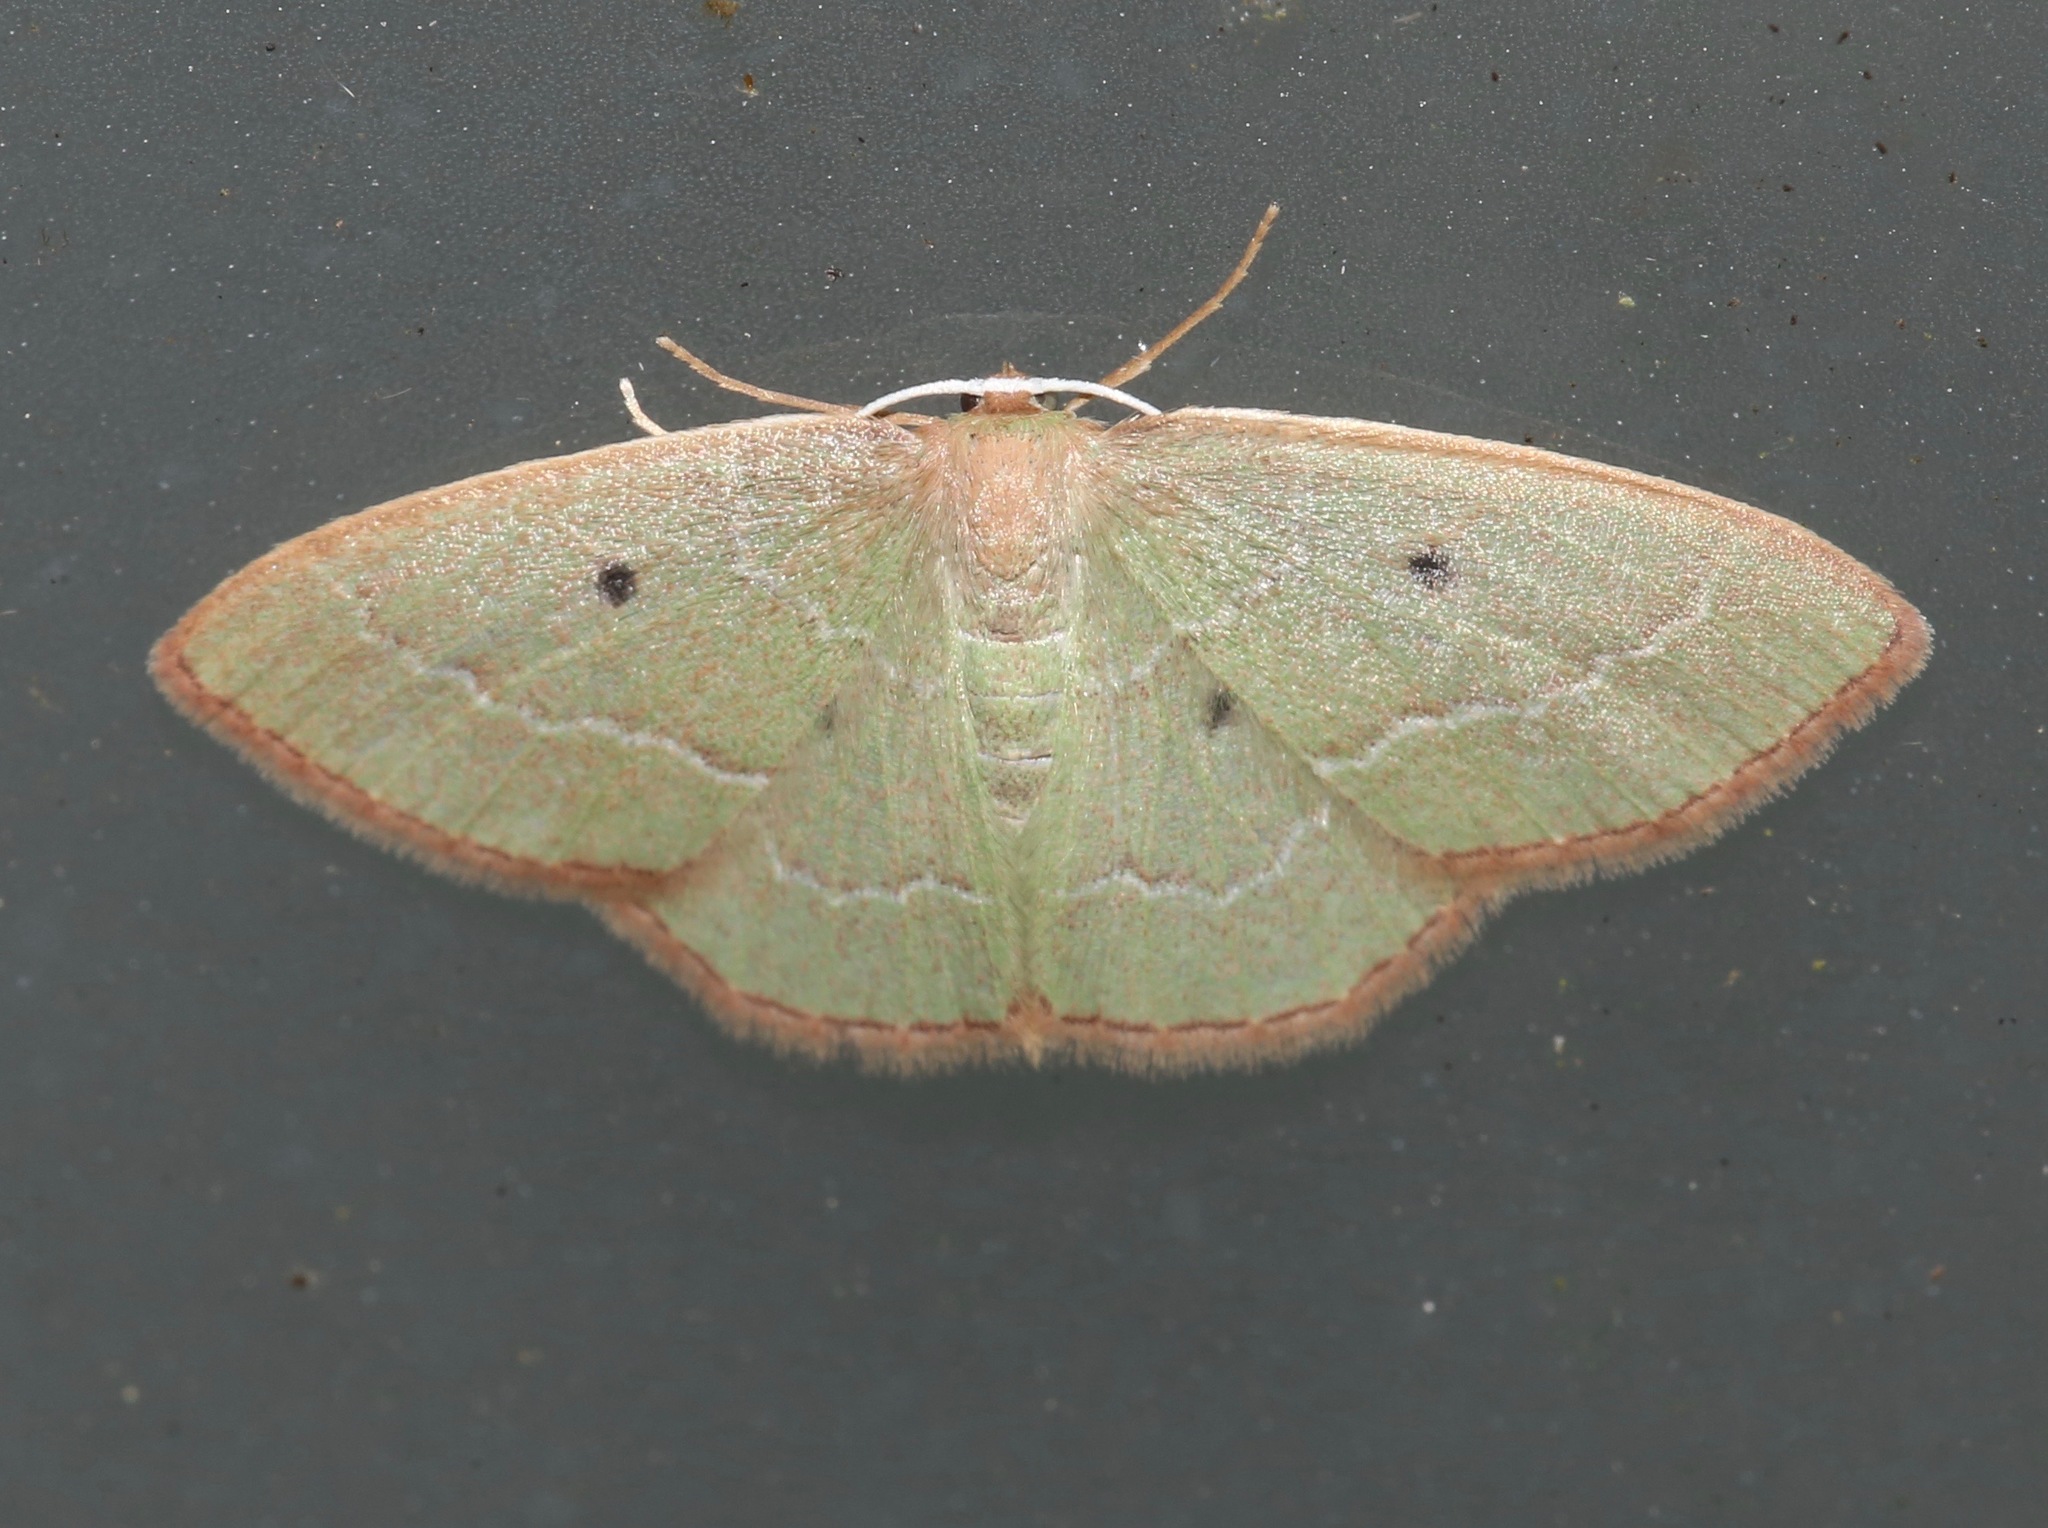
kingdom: Animalia
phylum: Arthropoda
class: Insecta
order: Lepidoptera
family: Geometridae
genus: Nemoria
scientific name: Nemoria elfa
